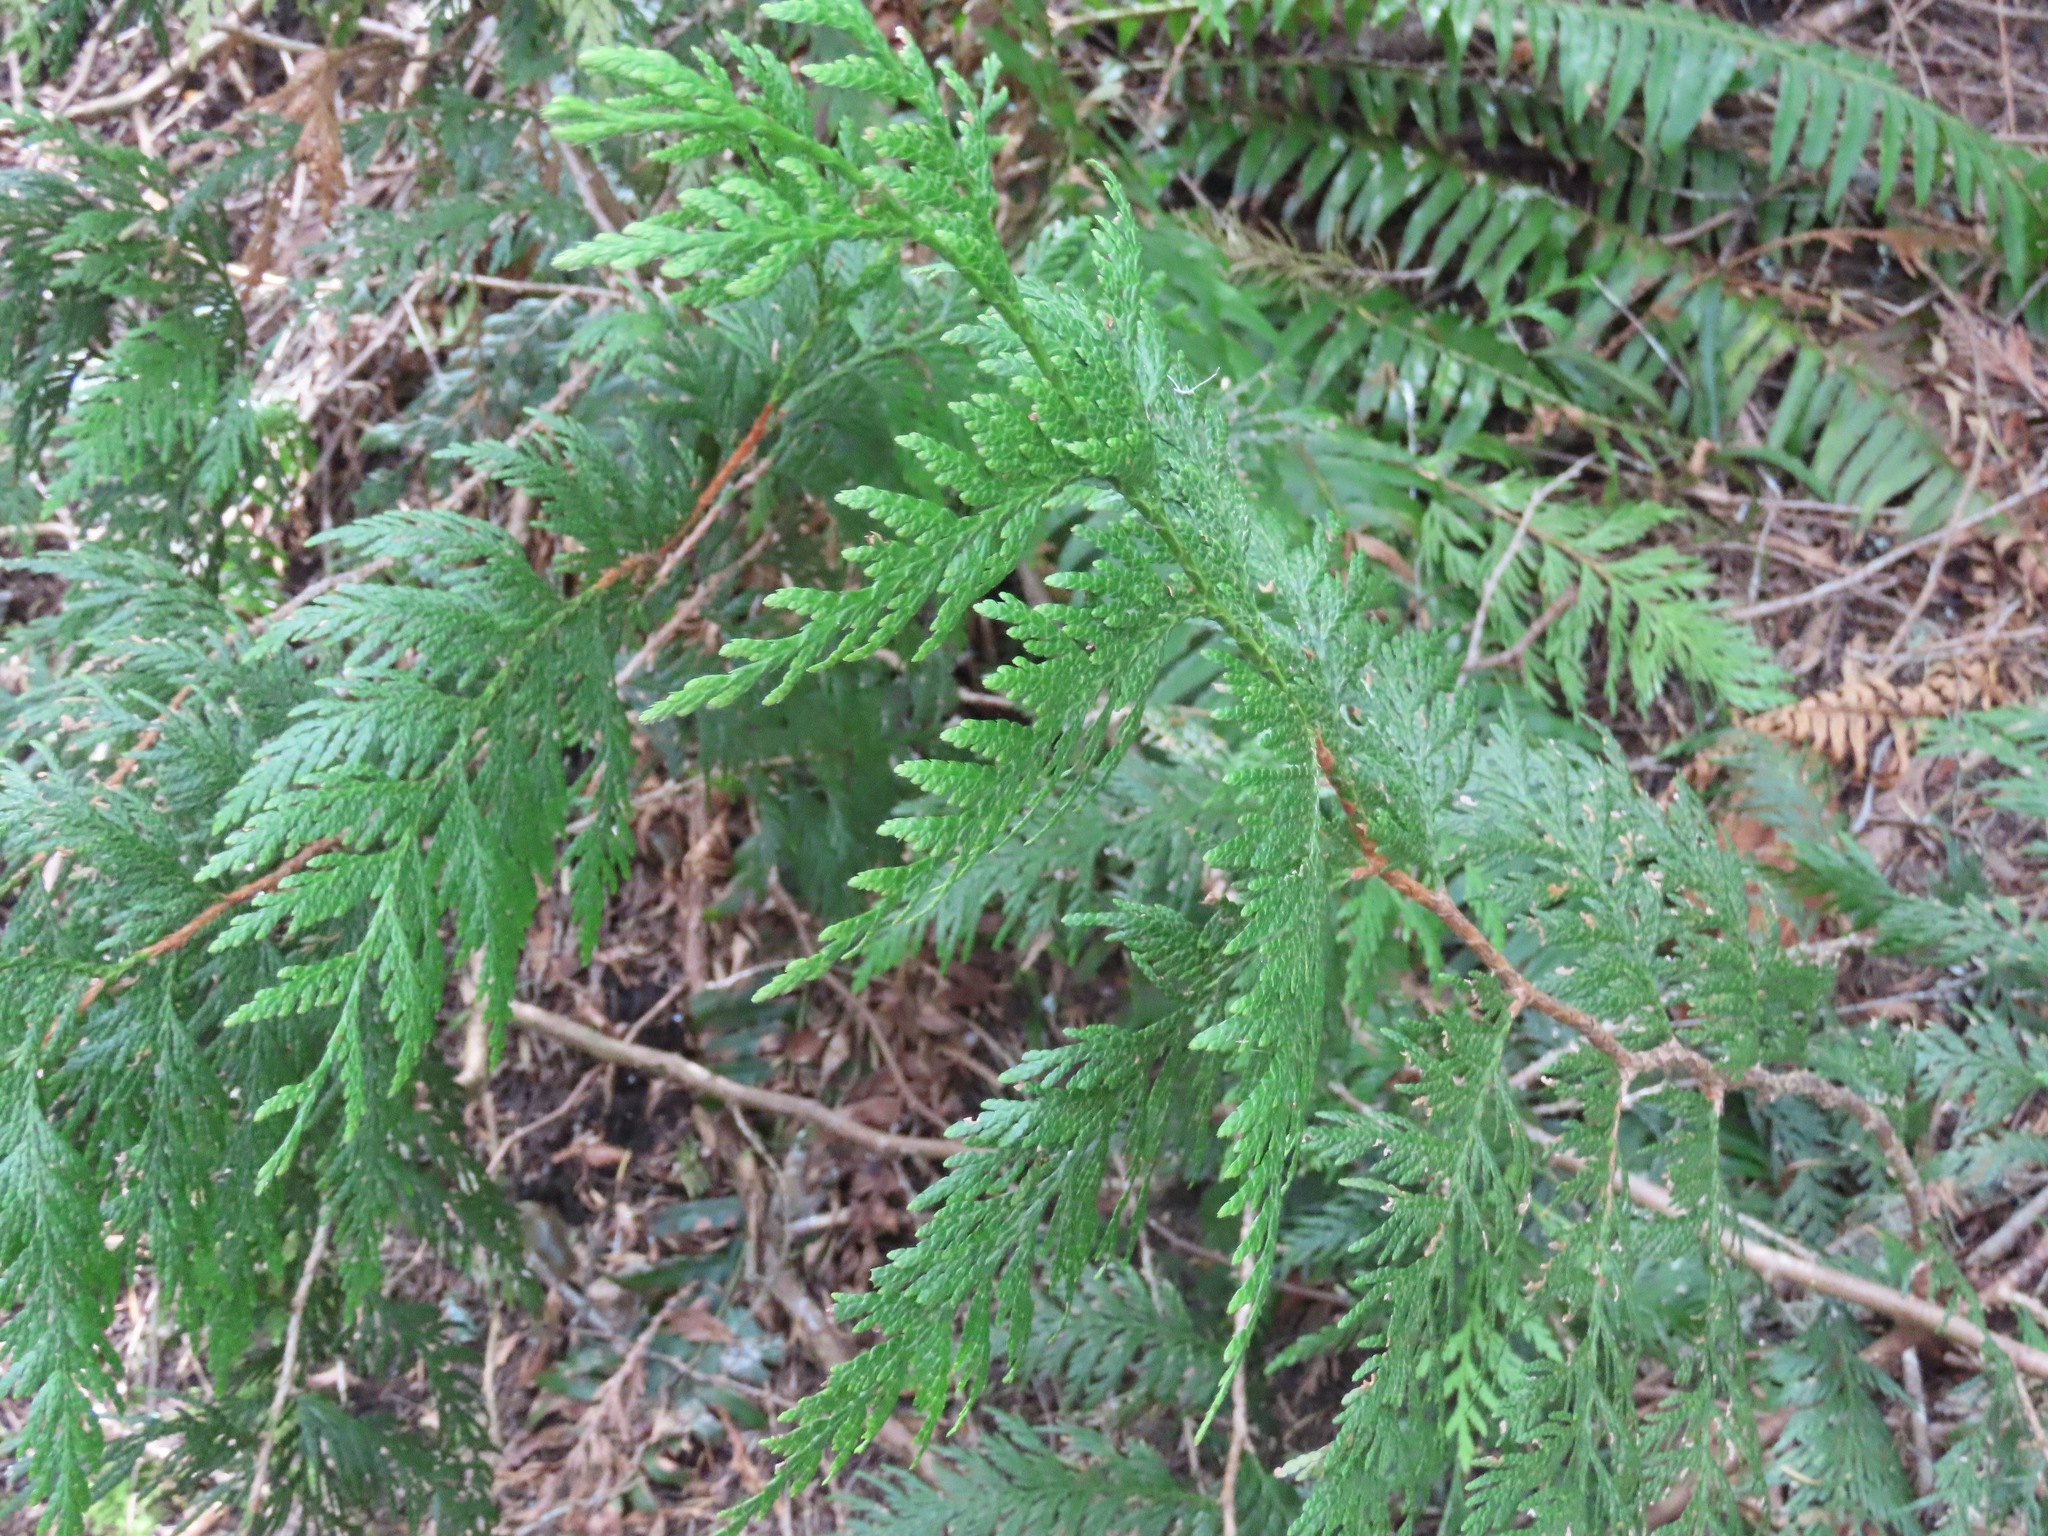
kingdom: Plantae
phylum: Tracheophyta
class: Pinopsida
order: Pinales
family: Cupressaceae
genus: Thuja
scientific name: Thuja plicata
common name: Western red-cedar
